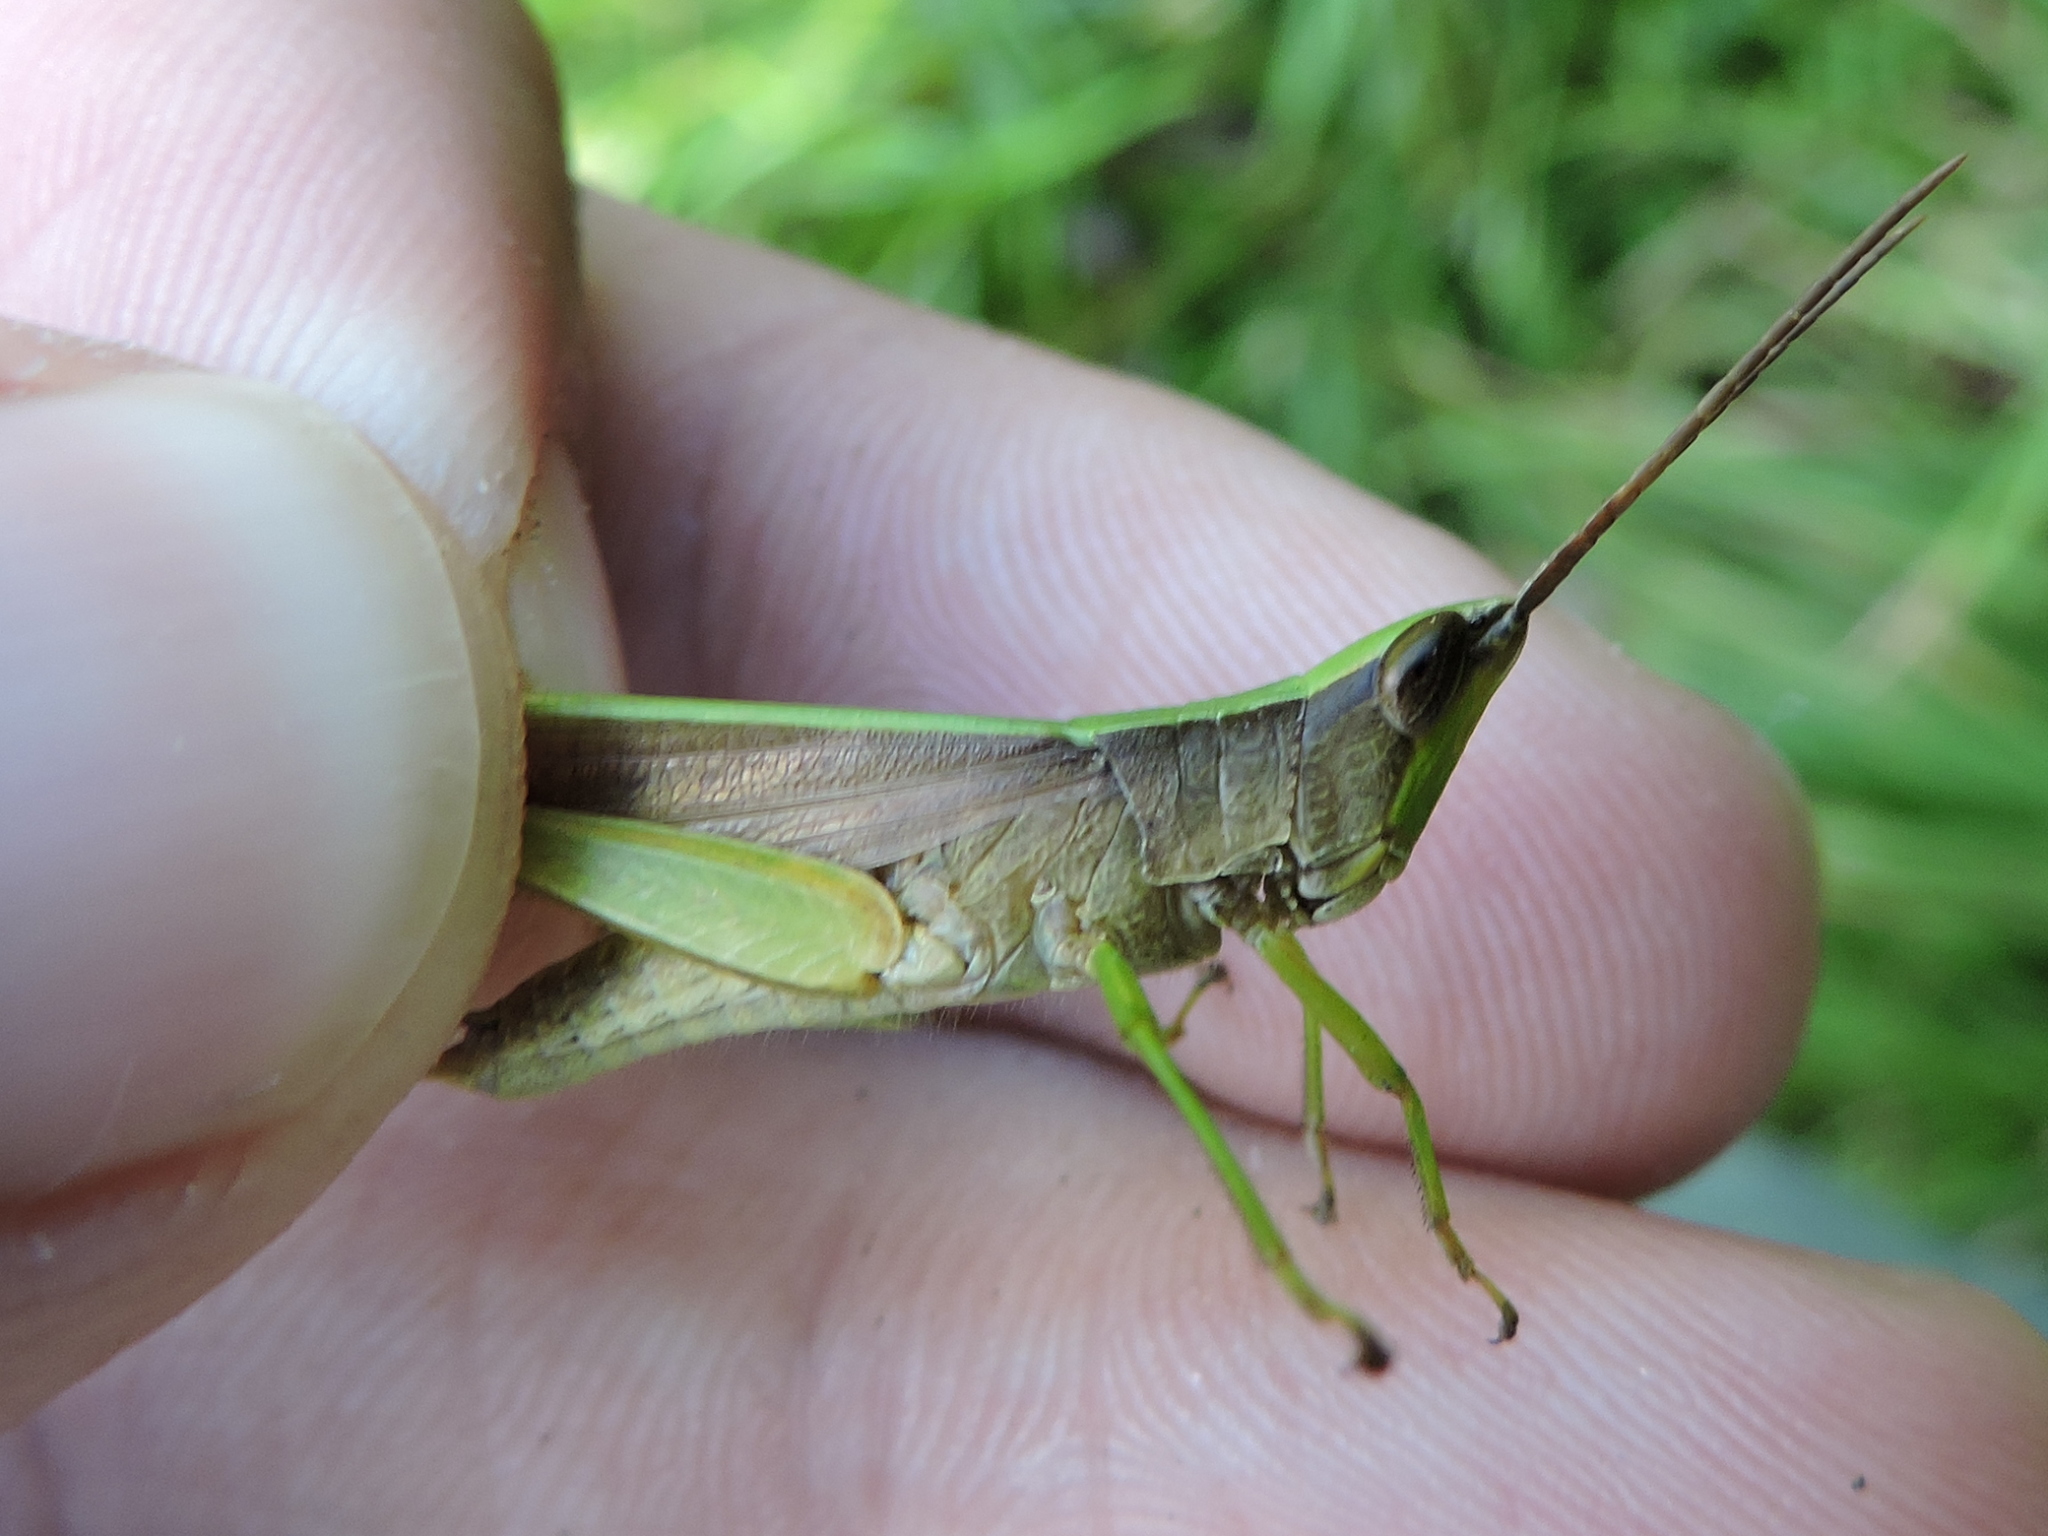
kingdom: Animalia
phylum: Arthropoda
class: Insecta
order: Orthoptera
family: Acrididae
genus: Metaleptea
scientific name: Metaleptea brevicornis
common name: Clipped-wing grasshopper
